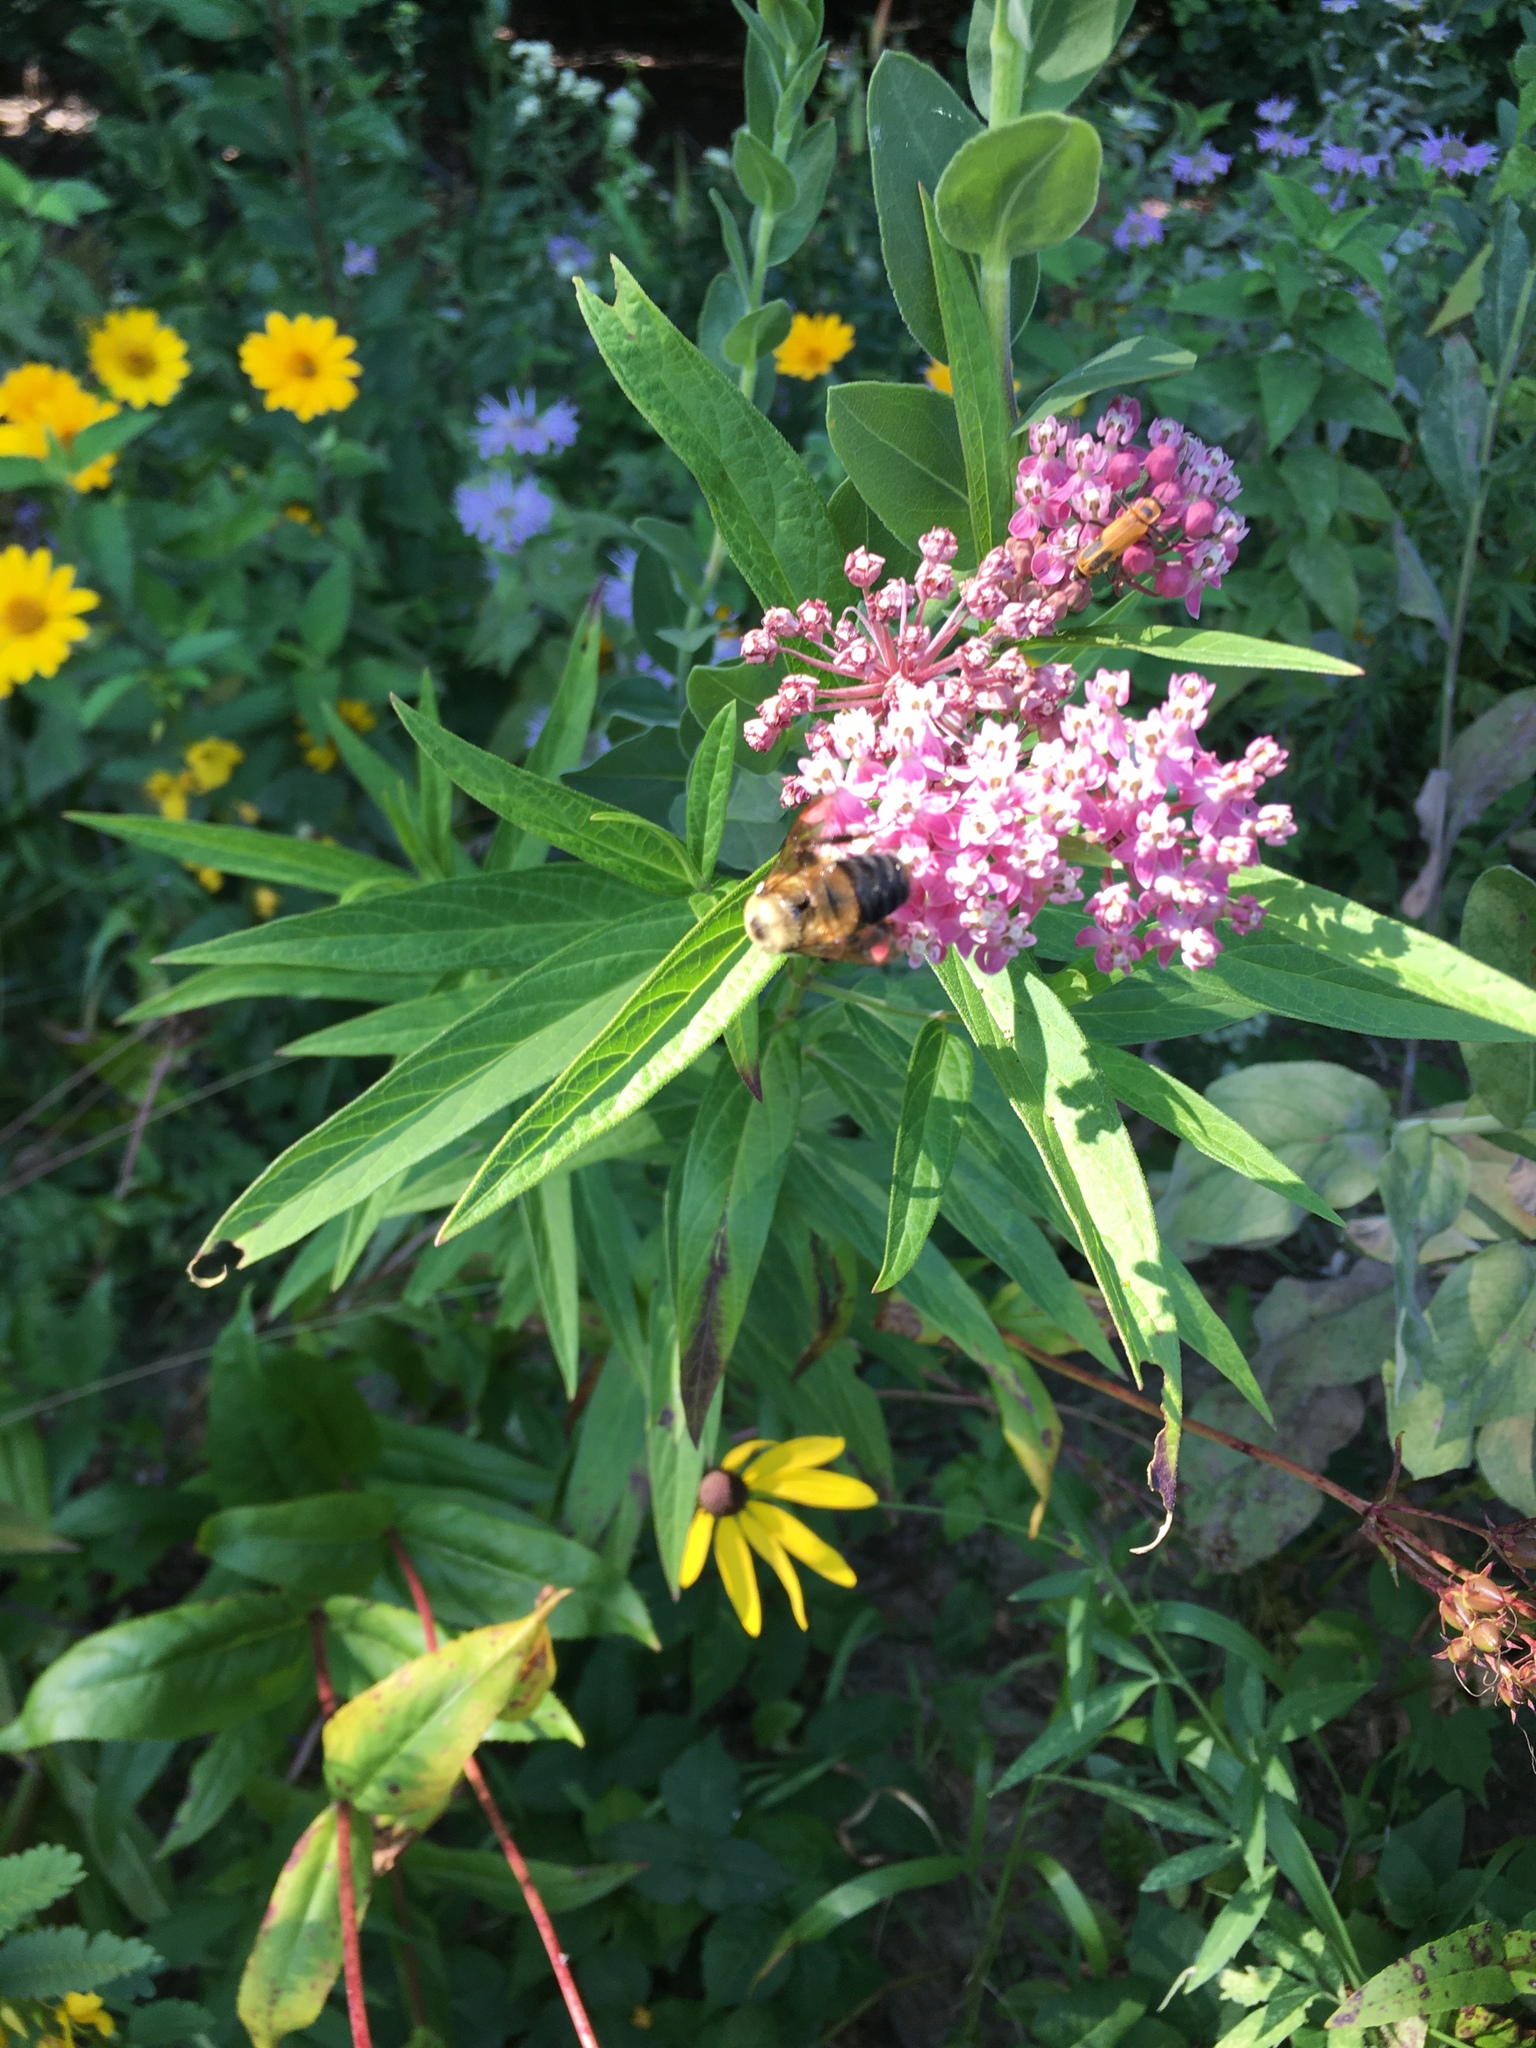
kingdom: Animalia
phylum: Arthropoda
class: Insecta
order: Hymenoptera
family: Apidae
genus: Bombus
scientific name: Bombus griseocollis
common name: Brown-belted bumble bee
